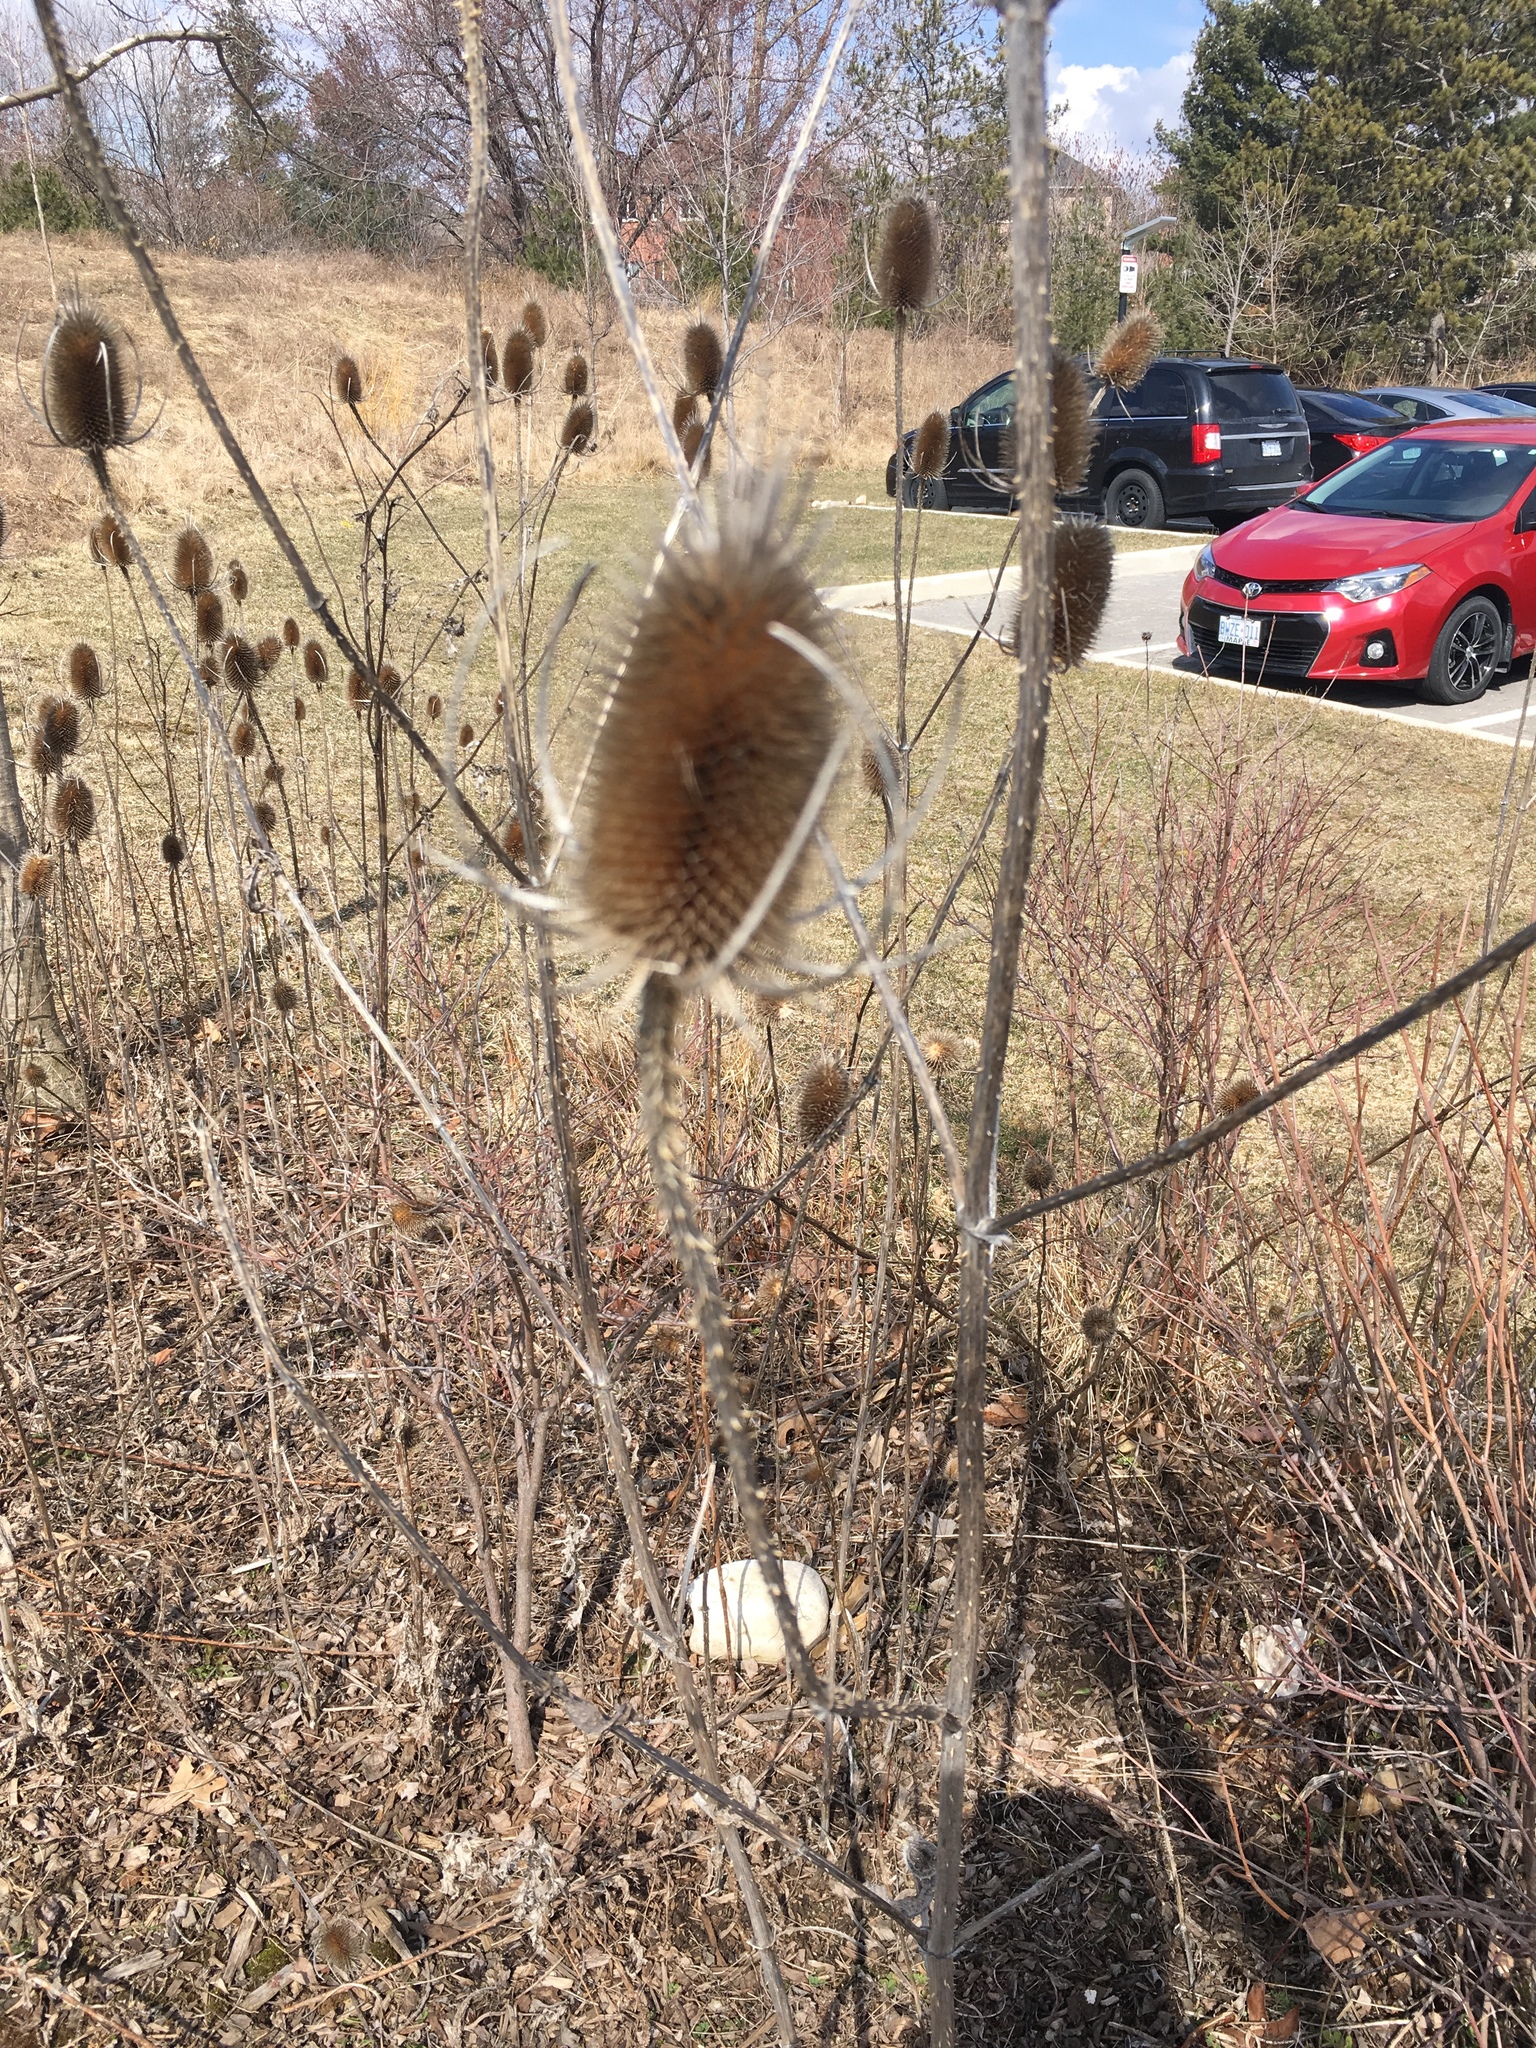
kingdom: Plantae
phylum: Tracheophyta
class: Magnoliopsida
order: Dipsacales
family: Caprifoliaceae
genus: Dipsacus
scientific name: Dipsacus fullonum
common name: Teasel
